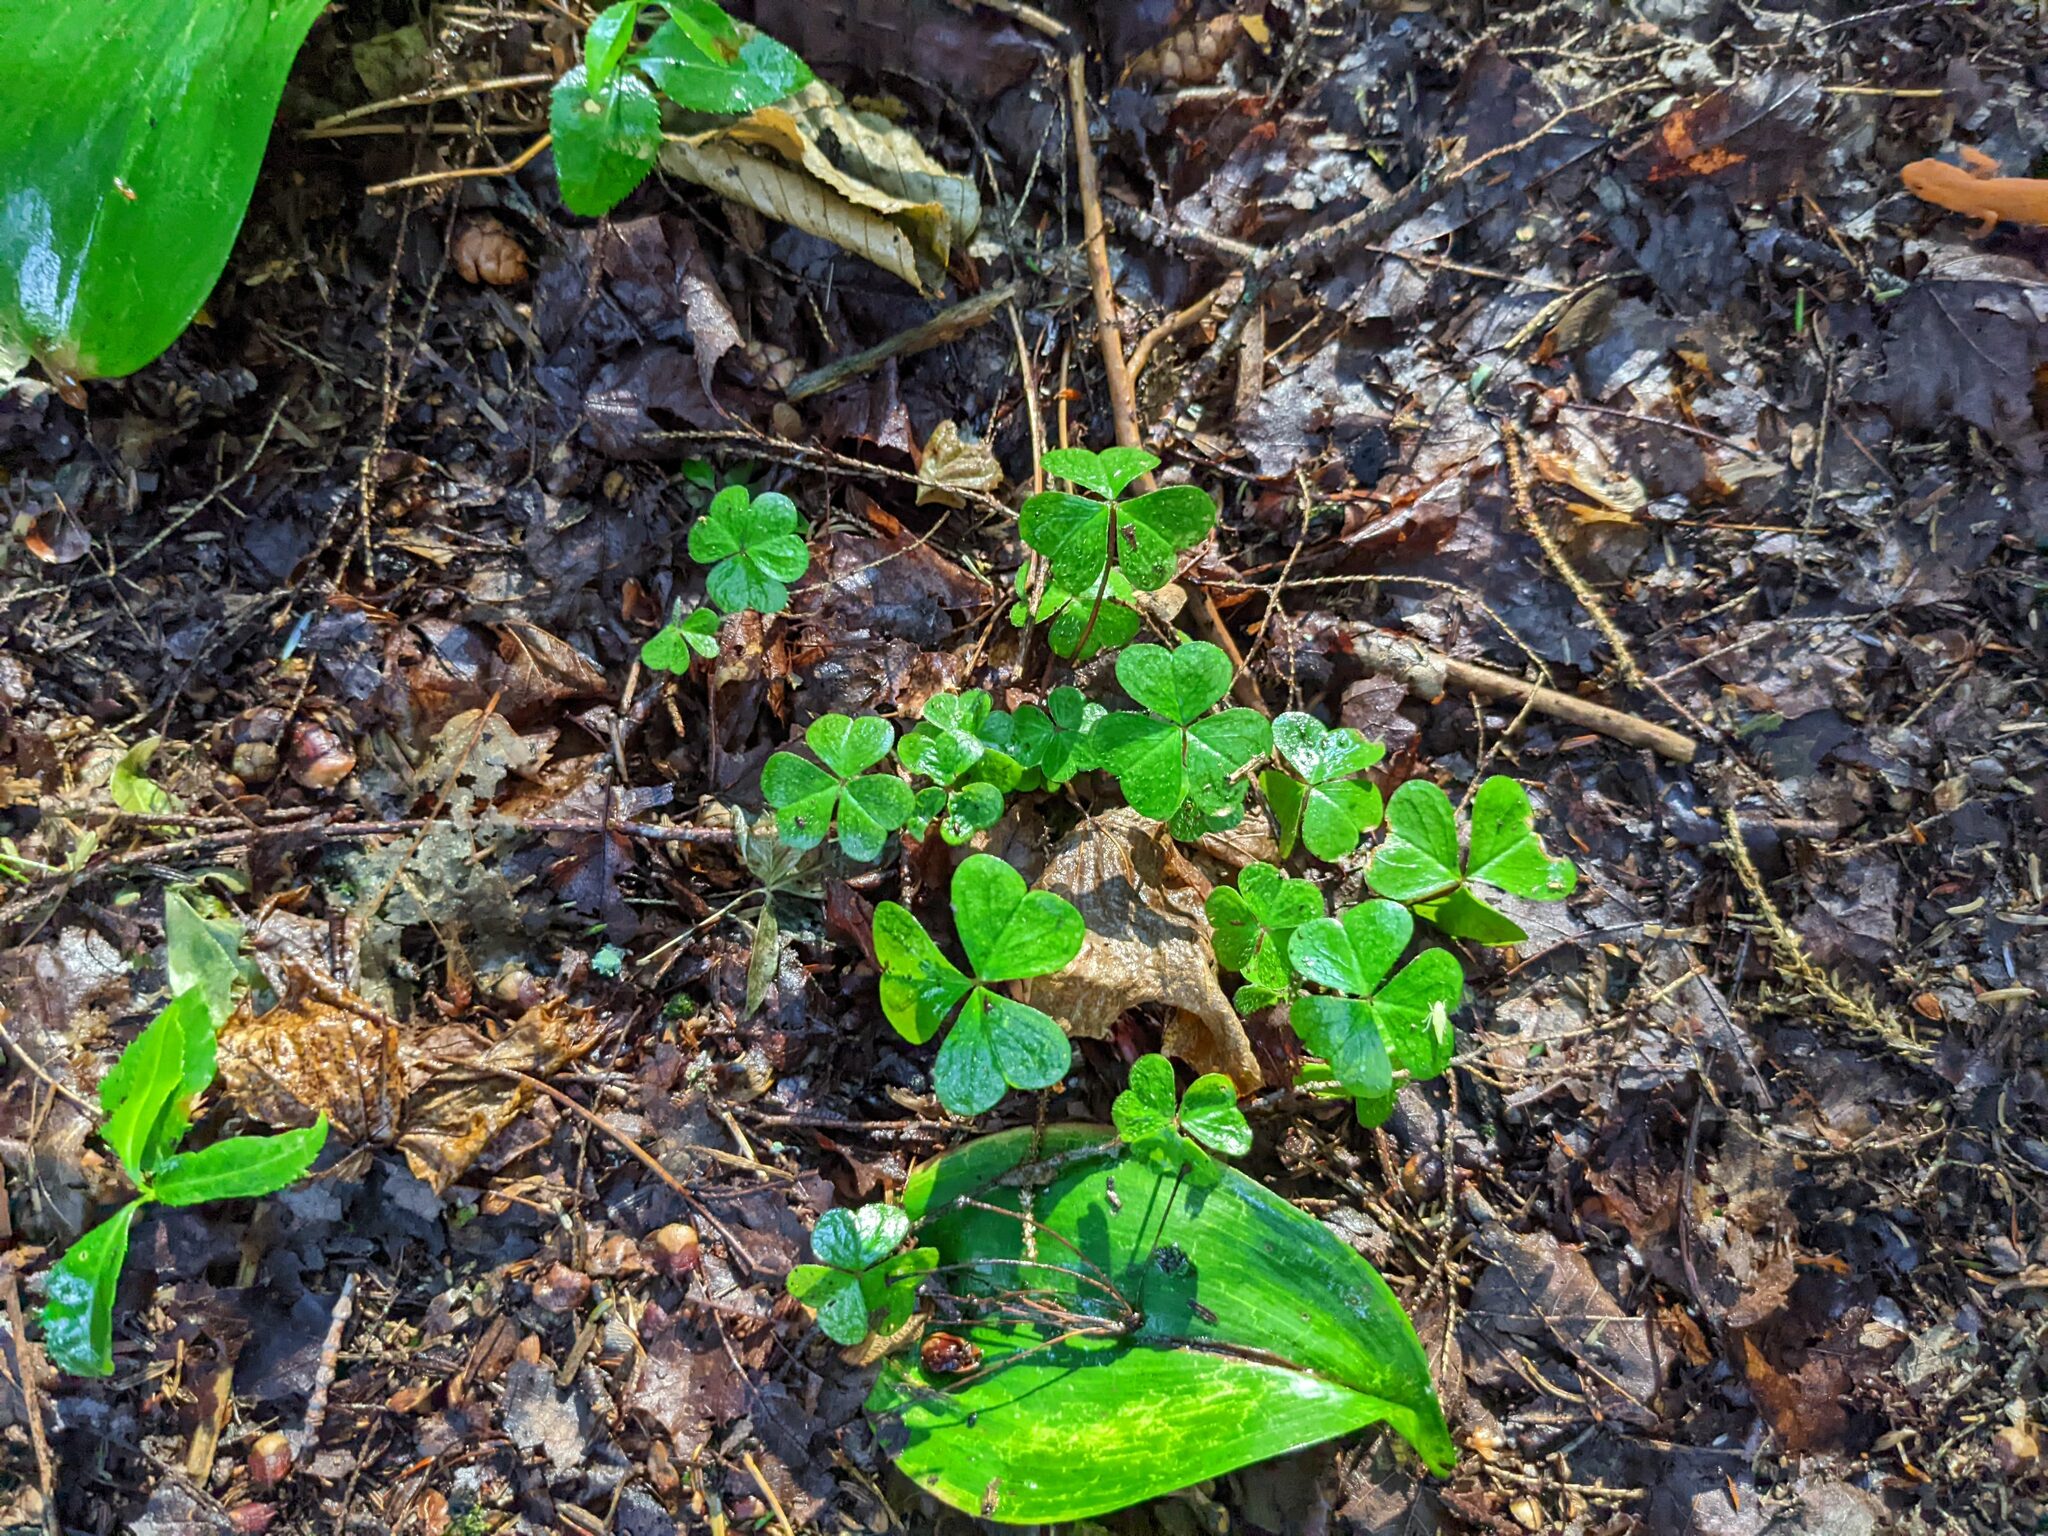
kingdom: Plantae
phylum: Tracheophyta
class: Magnoliopsida
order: Oxalidales
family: Oxalidaceae
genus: Oxalis
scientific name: Oxalis montana
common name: American wood-sorrel
